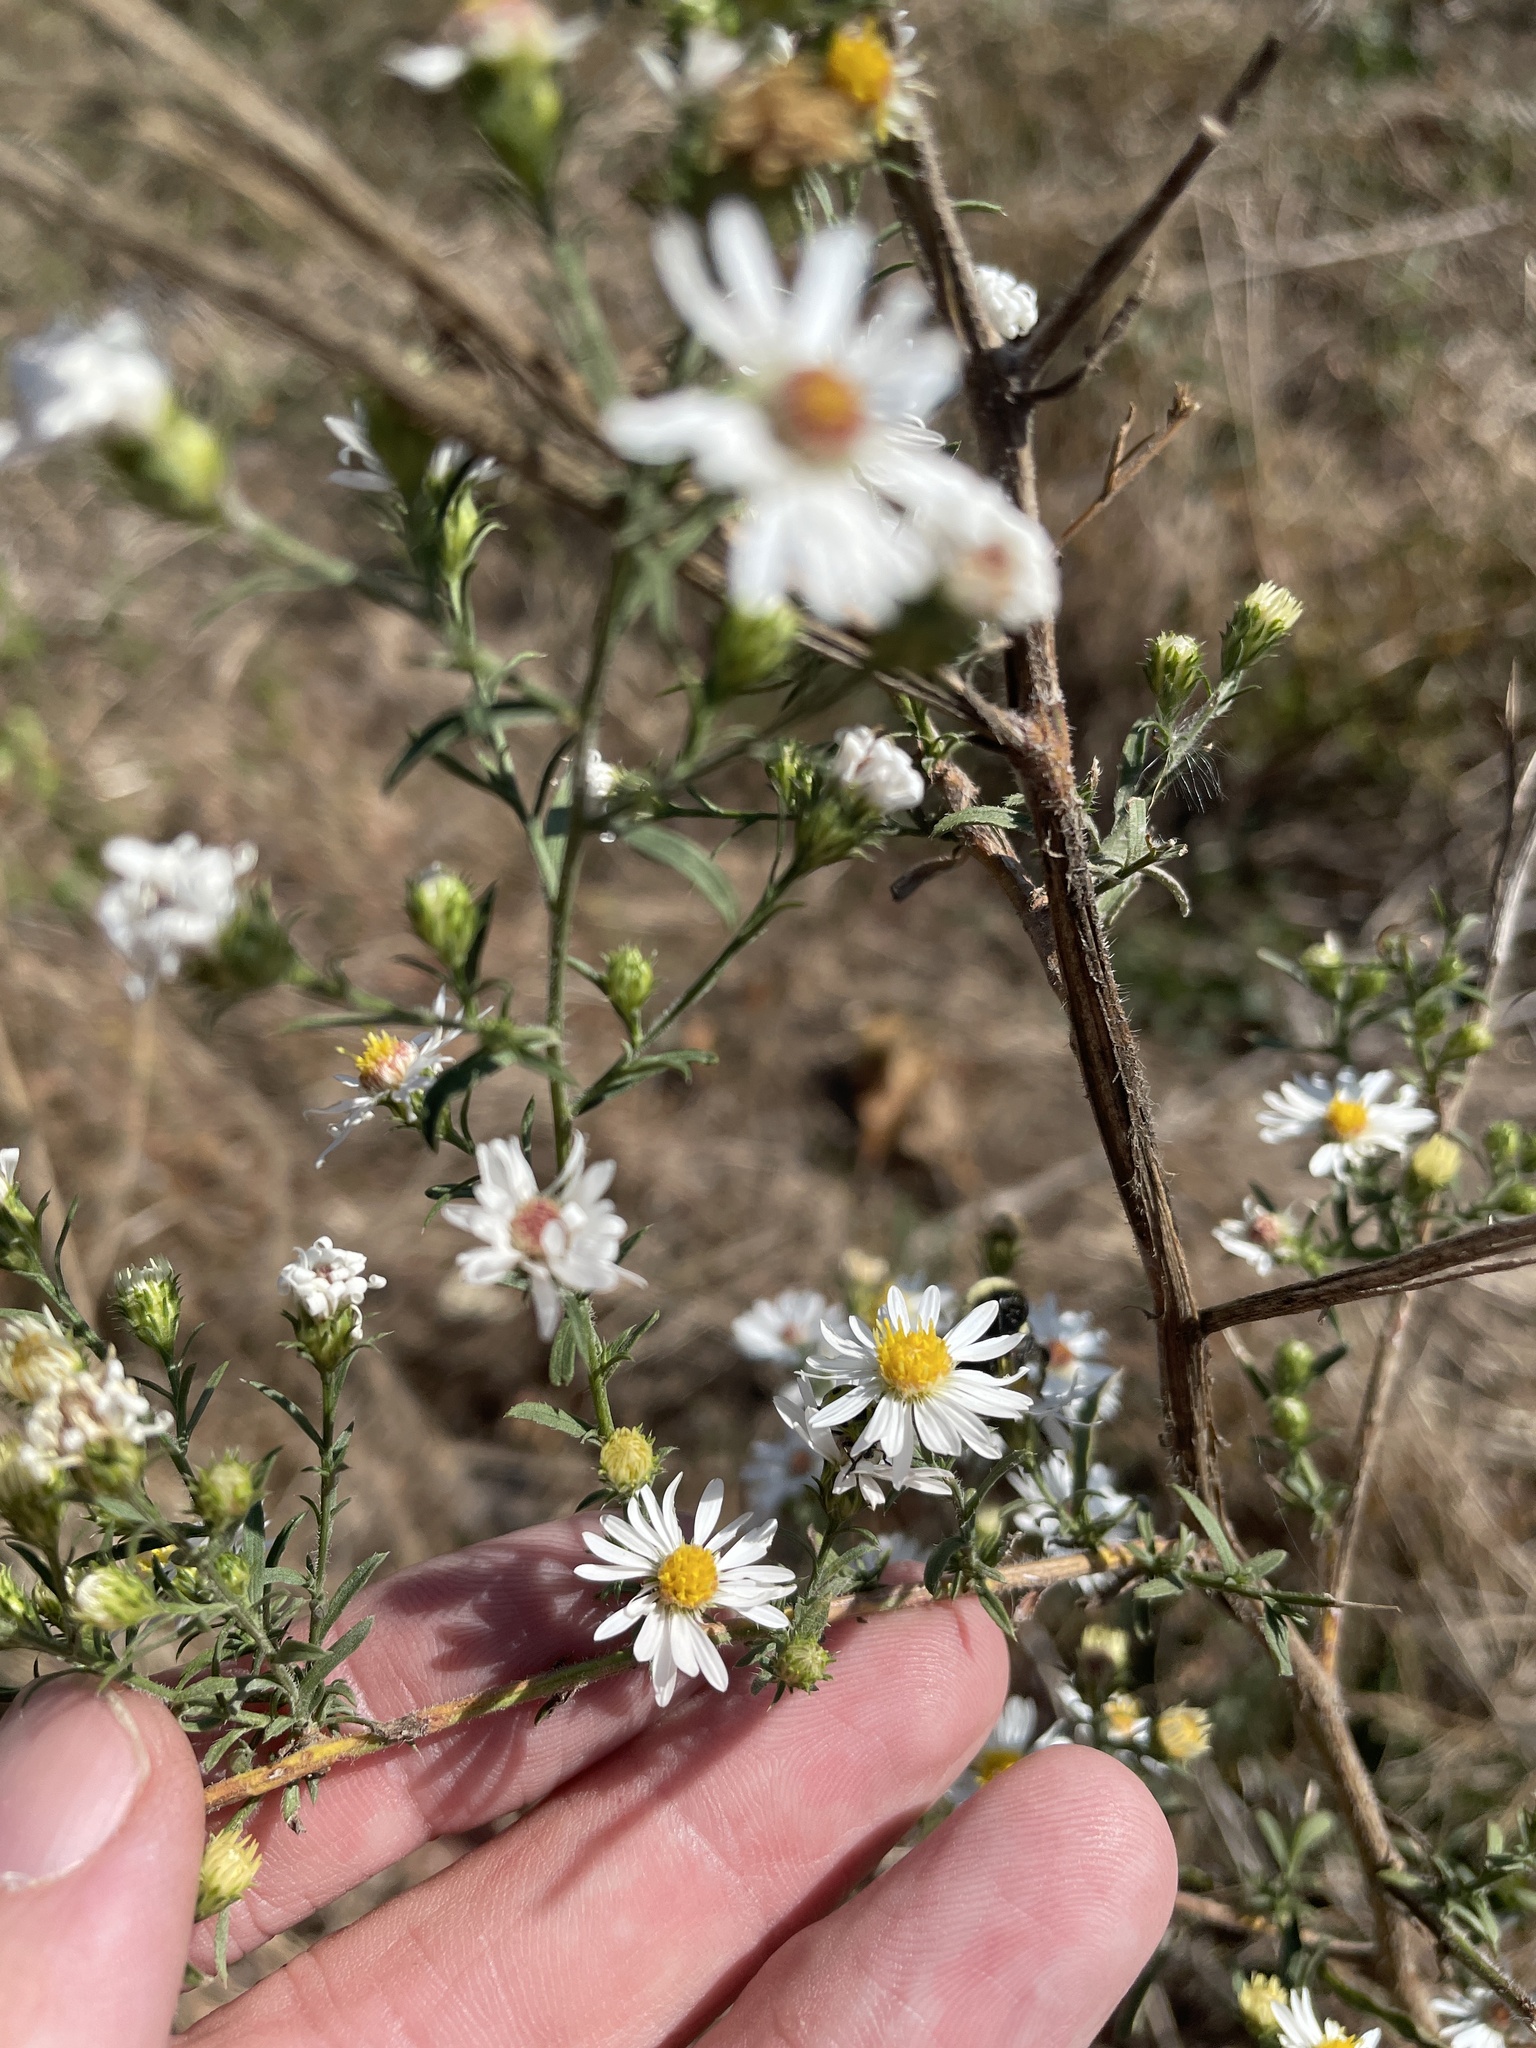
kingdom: Plantae
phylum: Tracheophyta
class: Magnoliopsida
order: Asterales
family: Asteraceae
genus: Symphyotrichum
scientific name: Symphyotrichum pilosum
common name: Awl aster
